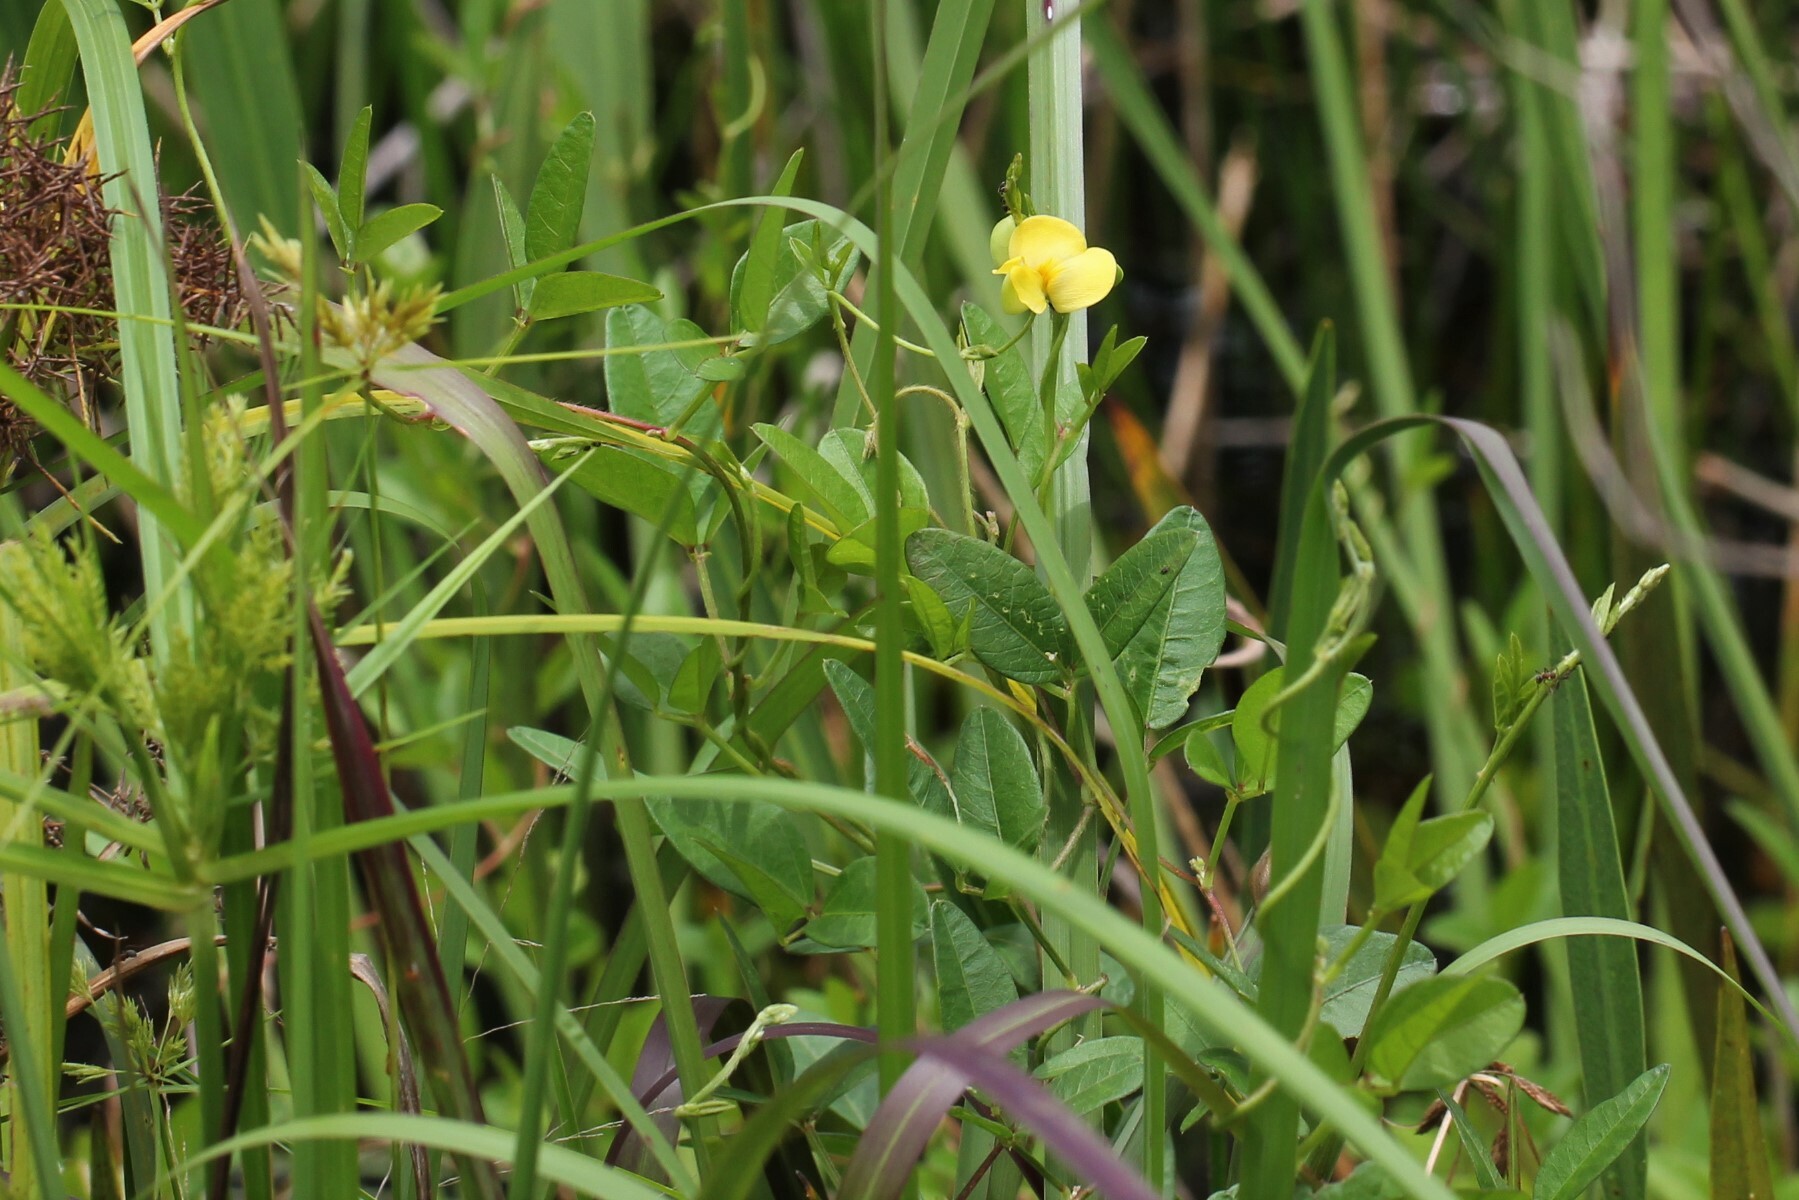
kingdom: Plantae
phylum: Tracheophyta
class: Magnoliopsida
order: Fabales
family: Fabaceae
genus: Vigna
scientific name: Vigna luteola
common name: Hairypod cowpea
